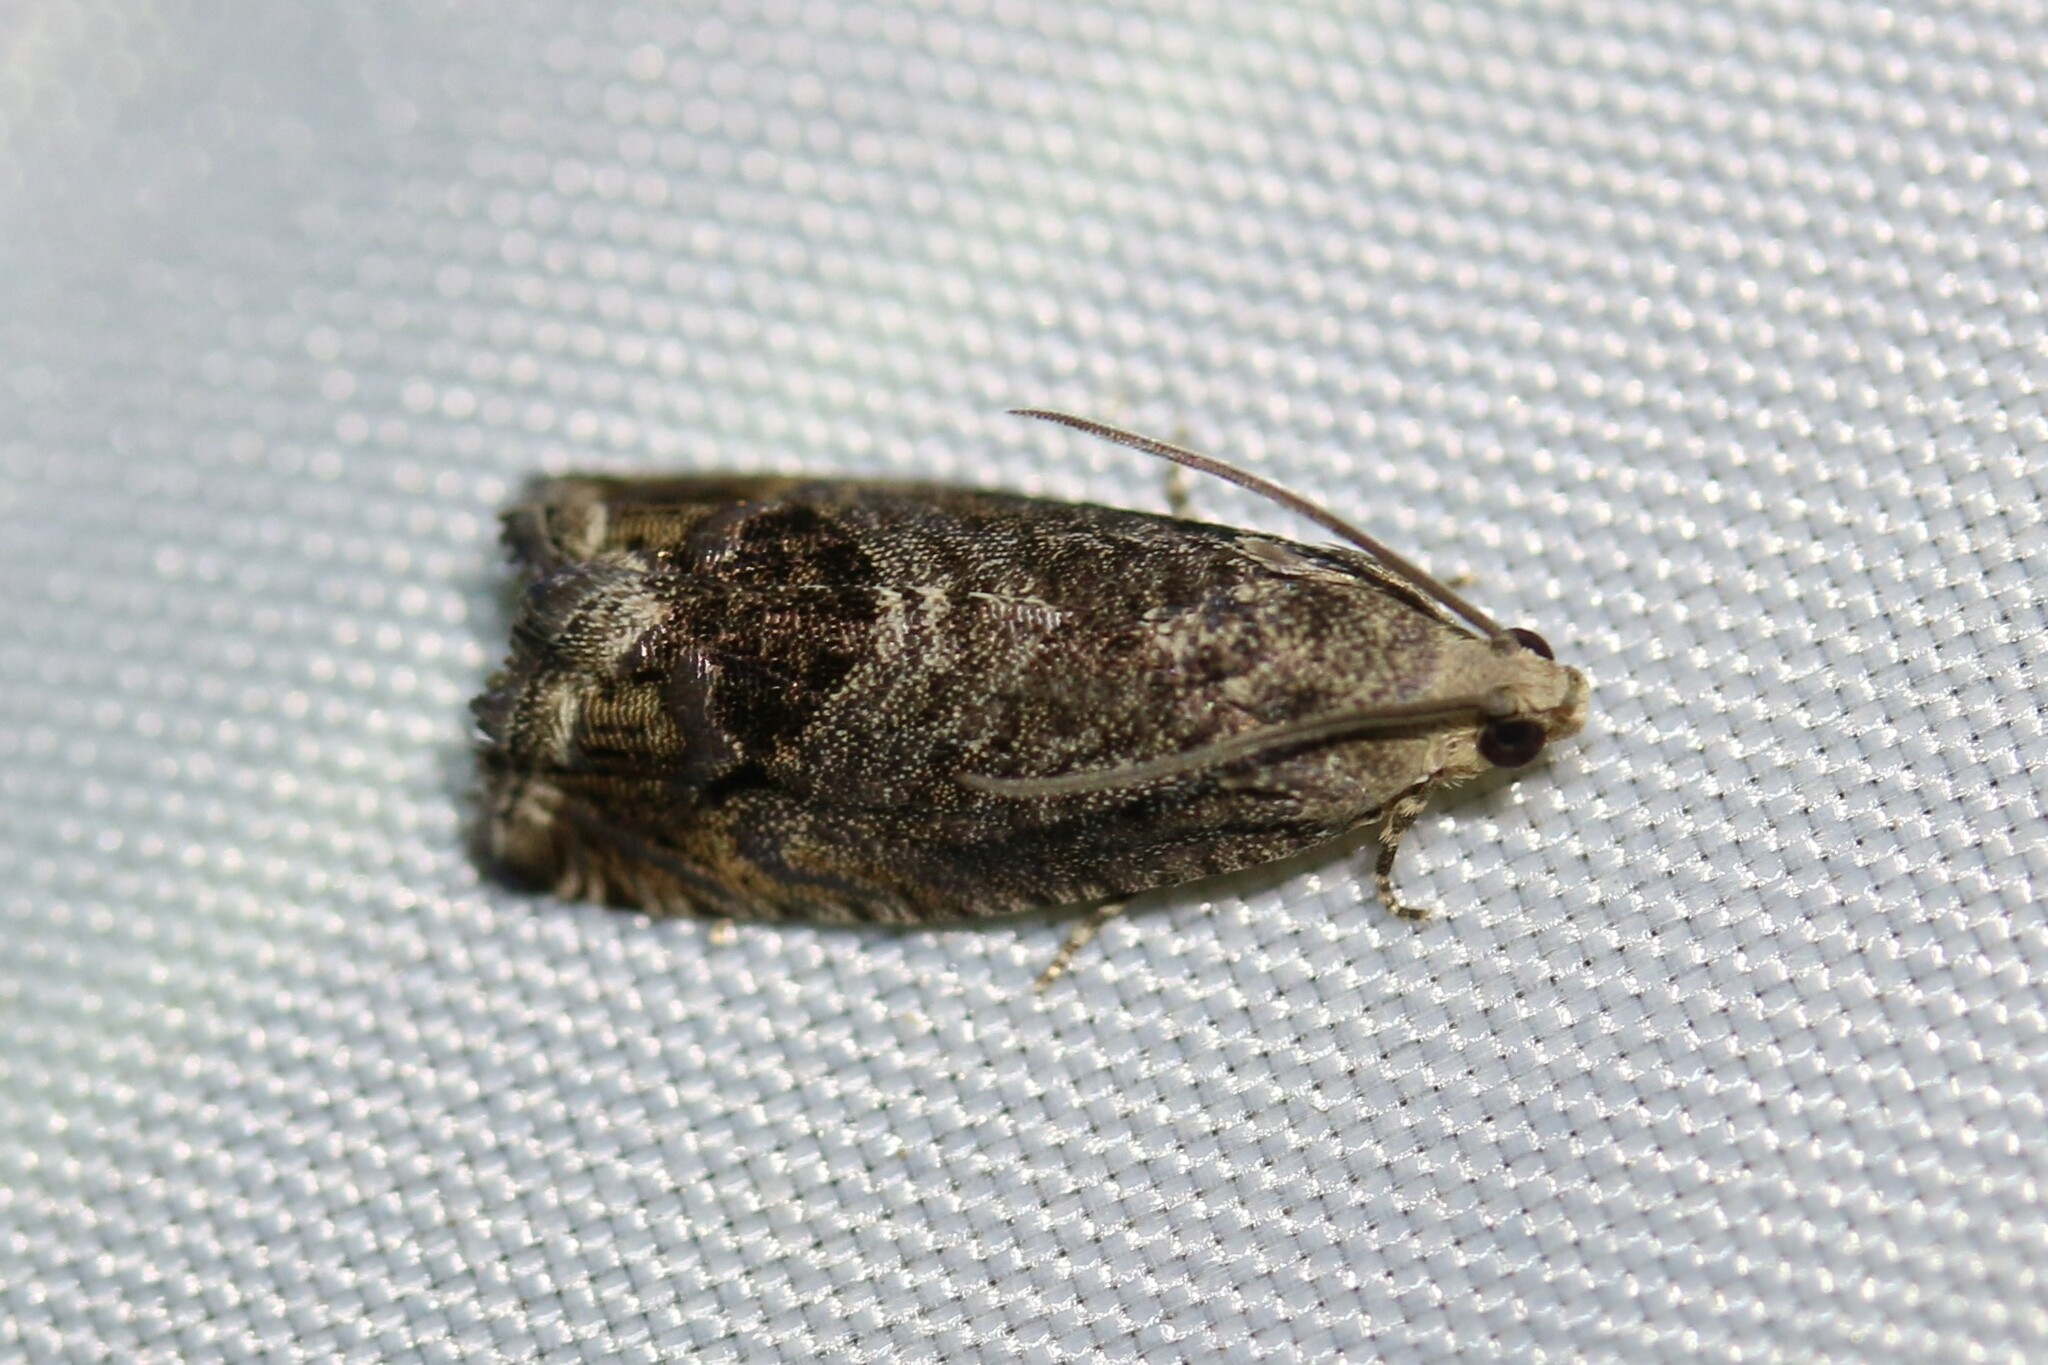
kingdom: Animalia
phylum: Arthropoda
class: Insecta
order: Lepidoptera
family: Tortricidae
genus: Cydia
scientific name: Cydia splendana
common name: De: kastanienwickler, eichenwickler es: oruga de la castaña fr: carpocapse des châtaignes it: cidia o tortrice tardiva delle castagne pt: bichado das castanhas gb: acorn moth, chestnut fruit tortrix
